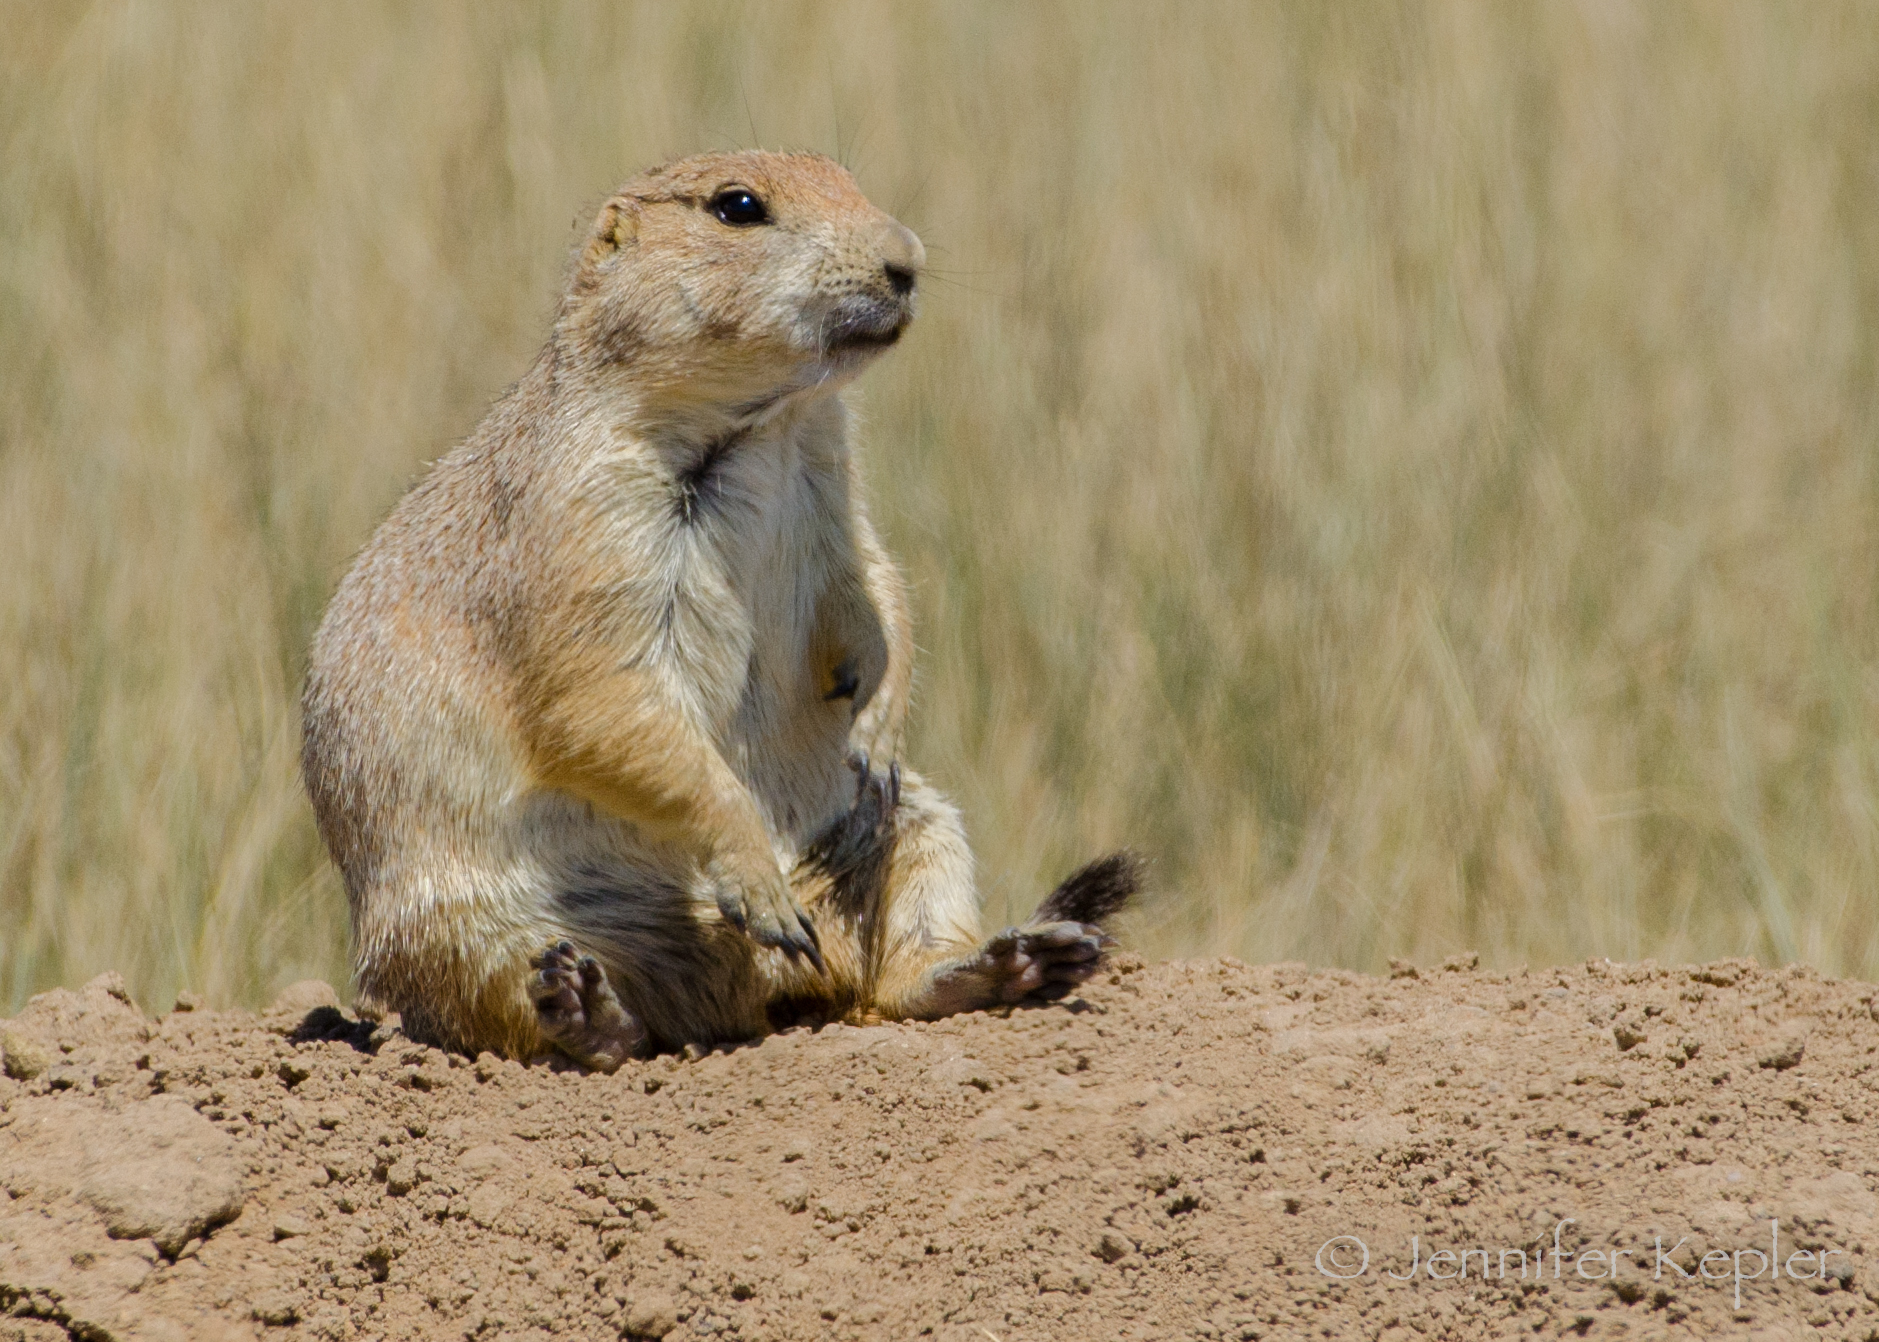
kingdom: Animalia
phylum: Chordata
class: Mammalia
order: Rodentia
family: Sciuridae
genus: Cynomys
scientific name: Cynomys ludovicianus
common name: Black-tailed prairie dog
